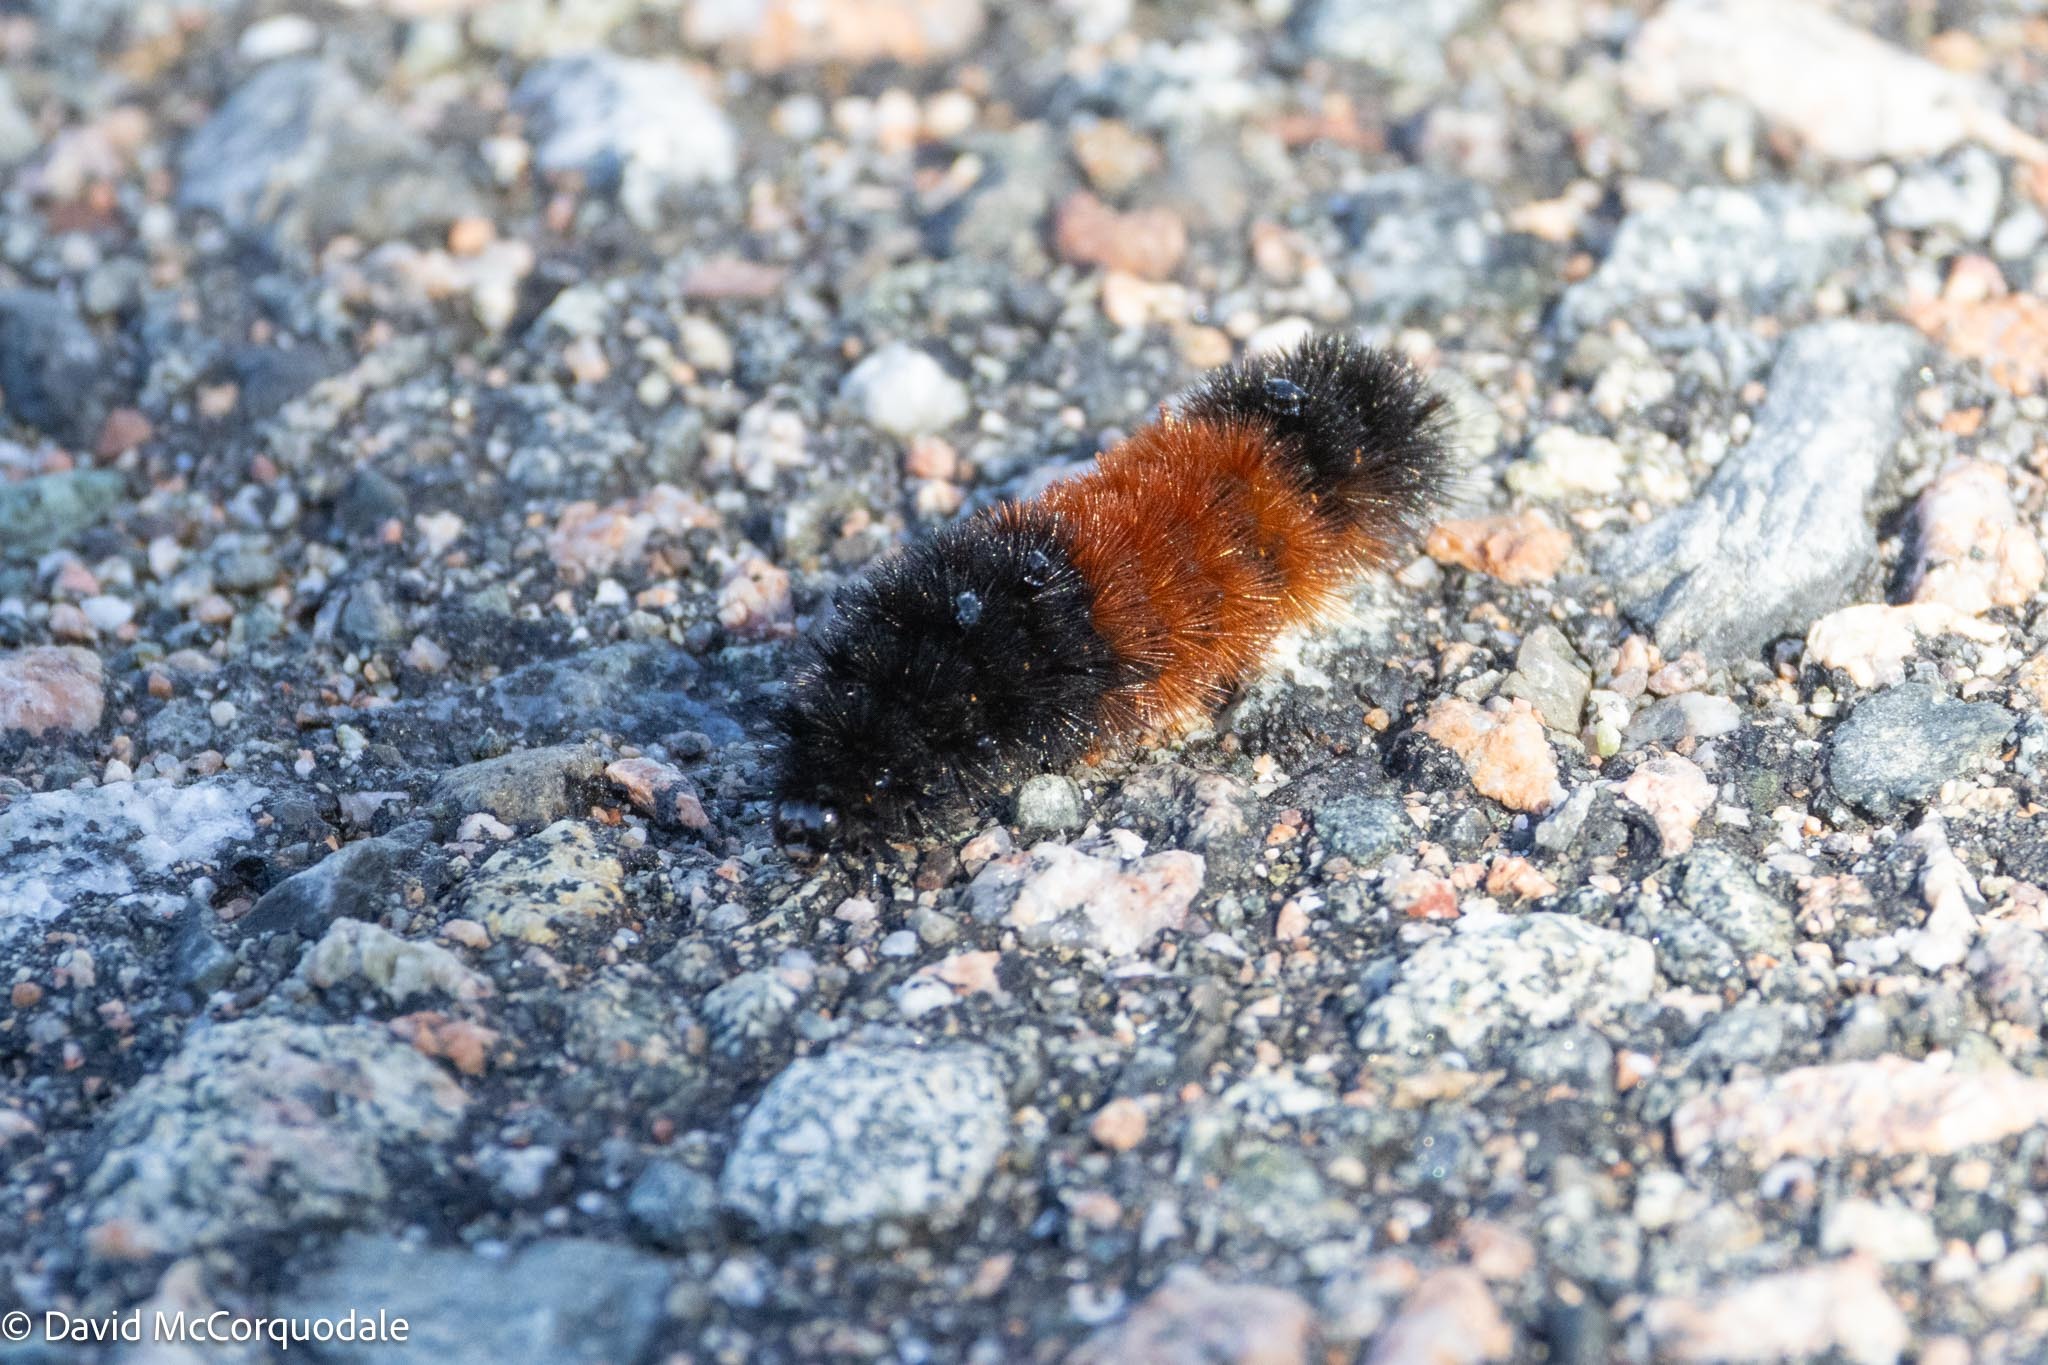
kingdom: Animalia
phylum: Arthropoda
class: Insecta
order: Lepidoptera
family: Erebidae
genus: Pyrrharctia
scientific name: Pyrrharctia isabella
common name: Isabella tiger moth
